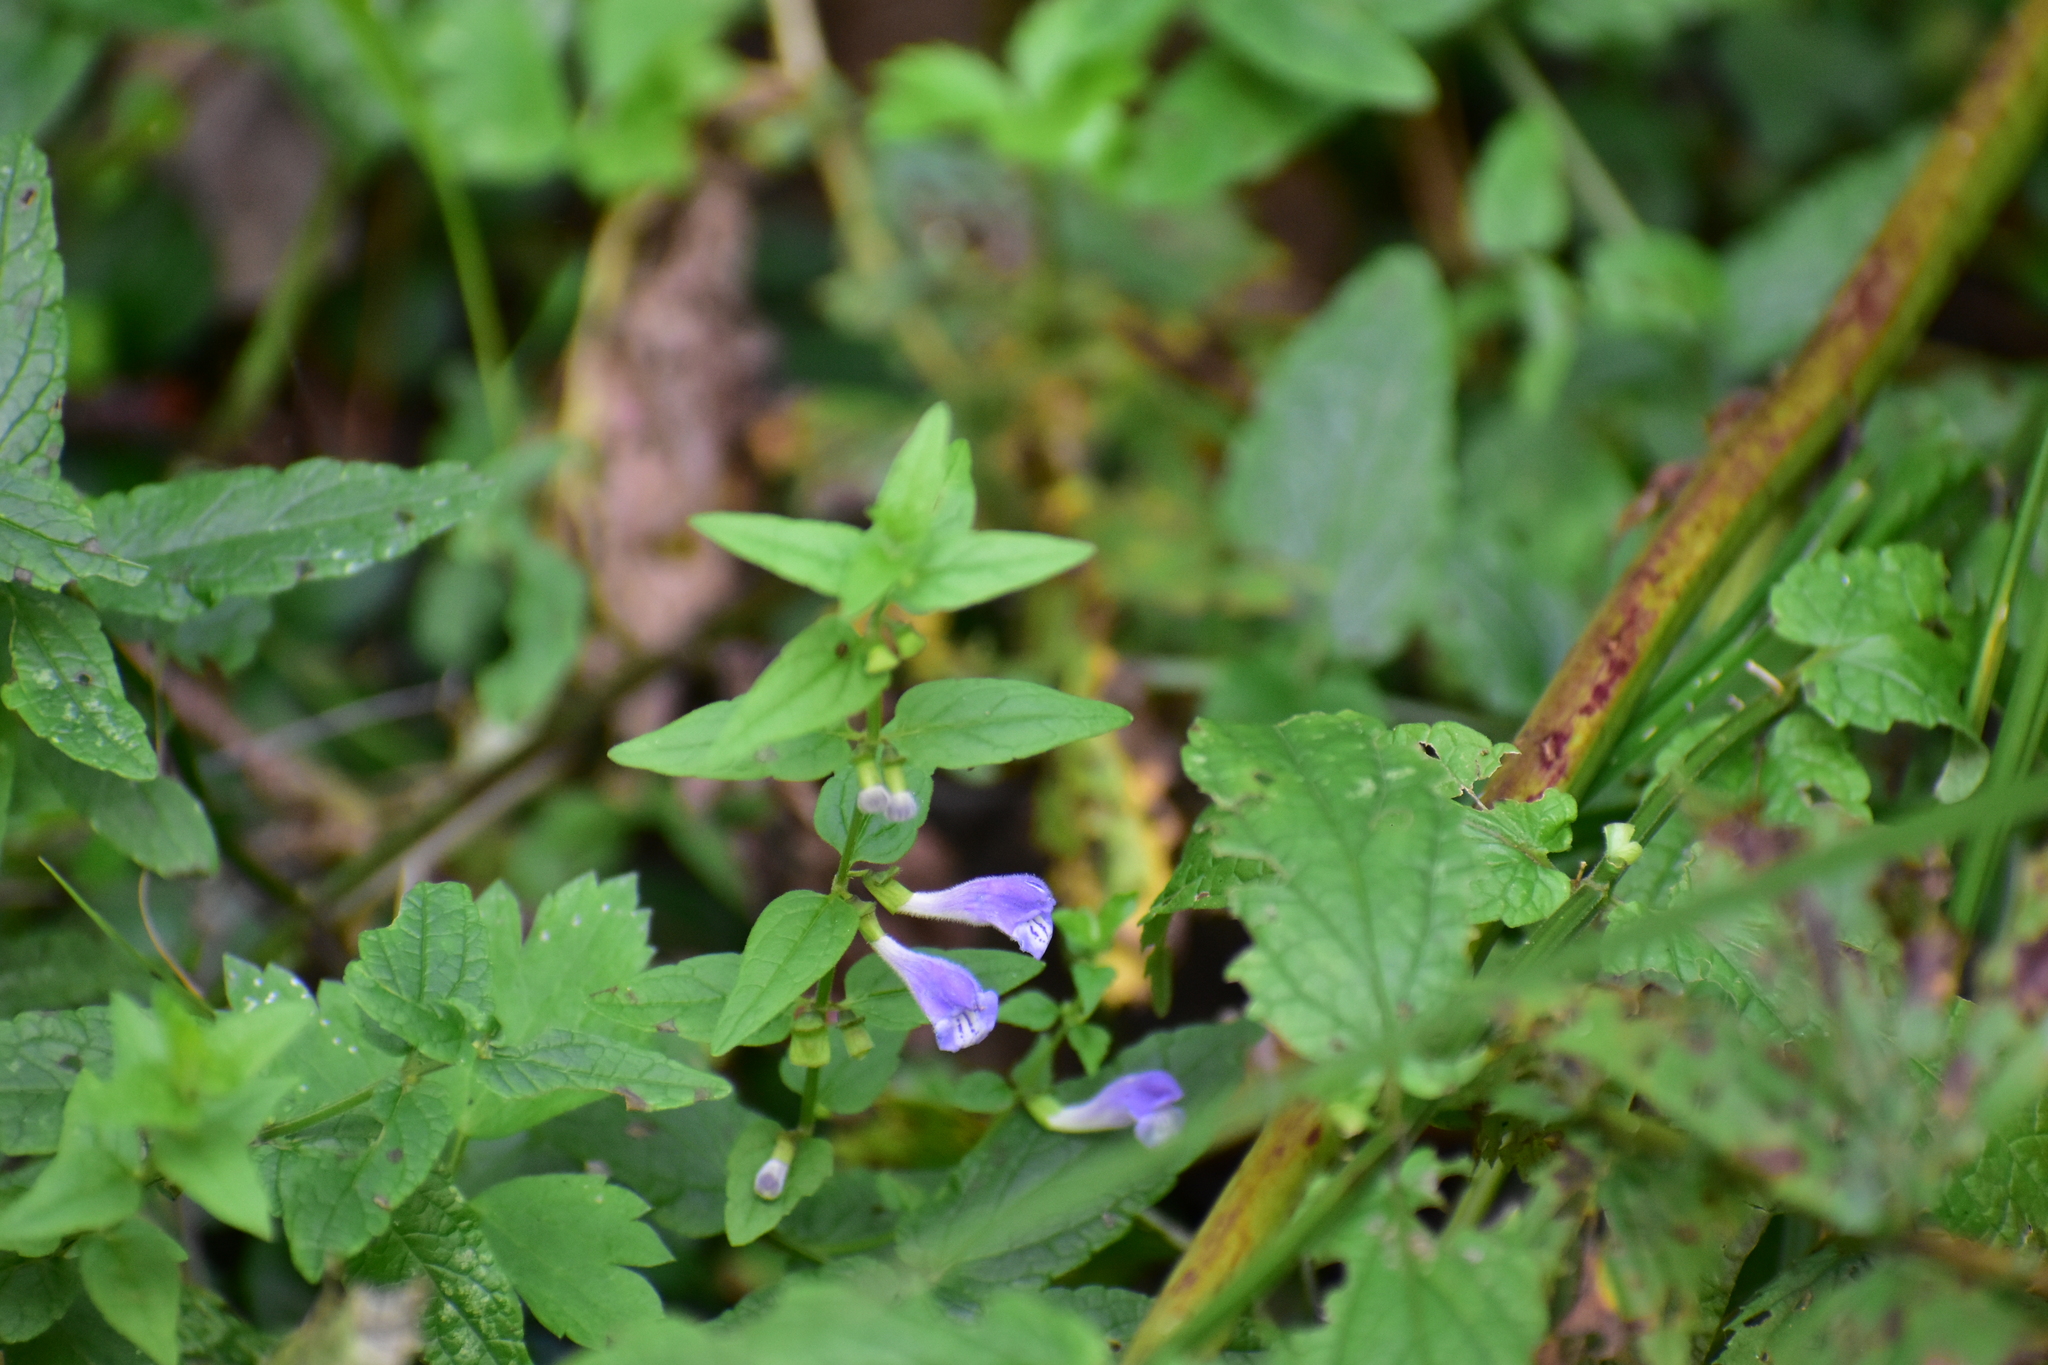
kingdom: Plantae
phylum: Tracheophyta
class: Magnoliopsida
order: Lamiales
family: Lamiaceae
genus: Scutellaria
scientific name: Scutellaria galericulata
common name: Skullcap
